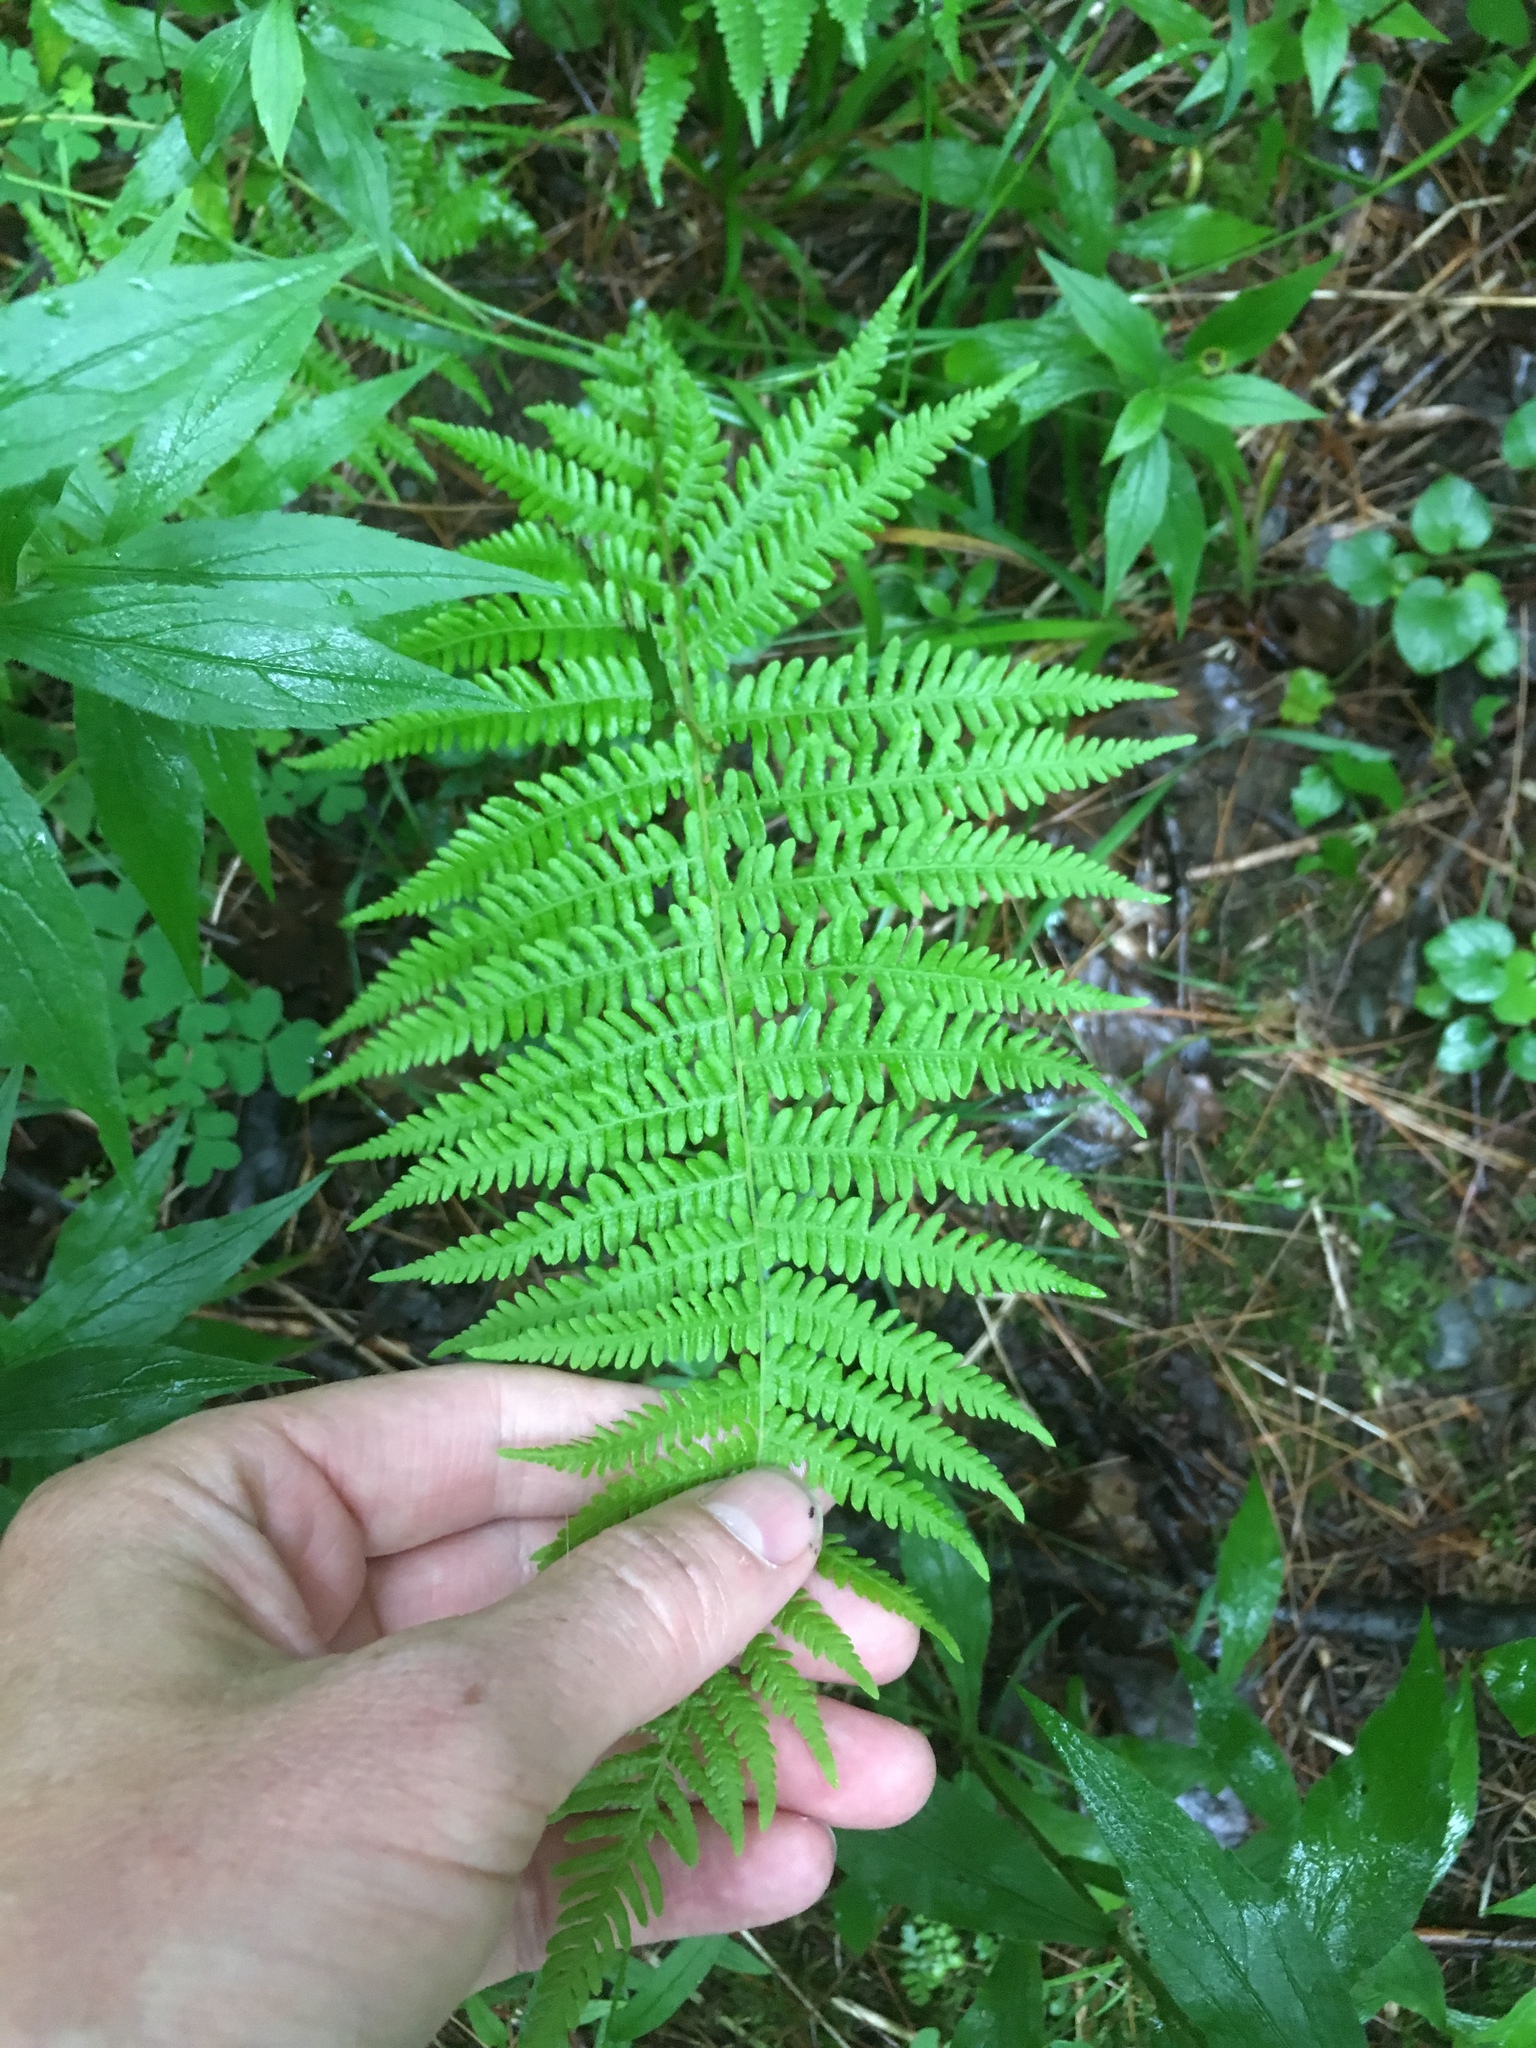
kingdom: Plantae
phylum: Tracheophyta
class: Polypodiopsida
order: Polypodiales
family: Thelypteridaceae
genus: Amauropelta
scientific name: Amauropelta noveboracensis
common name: New york fern
